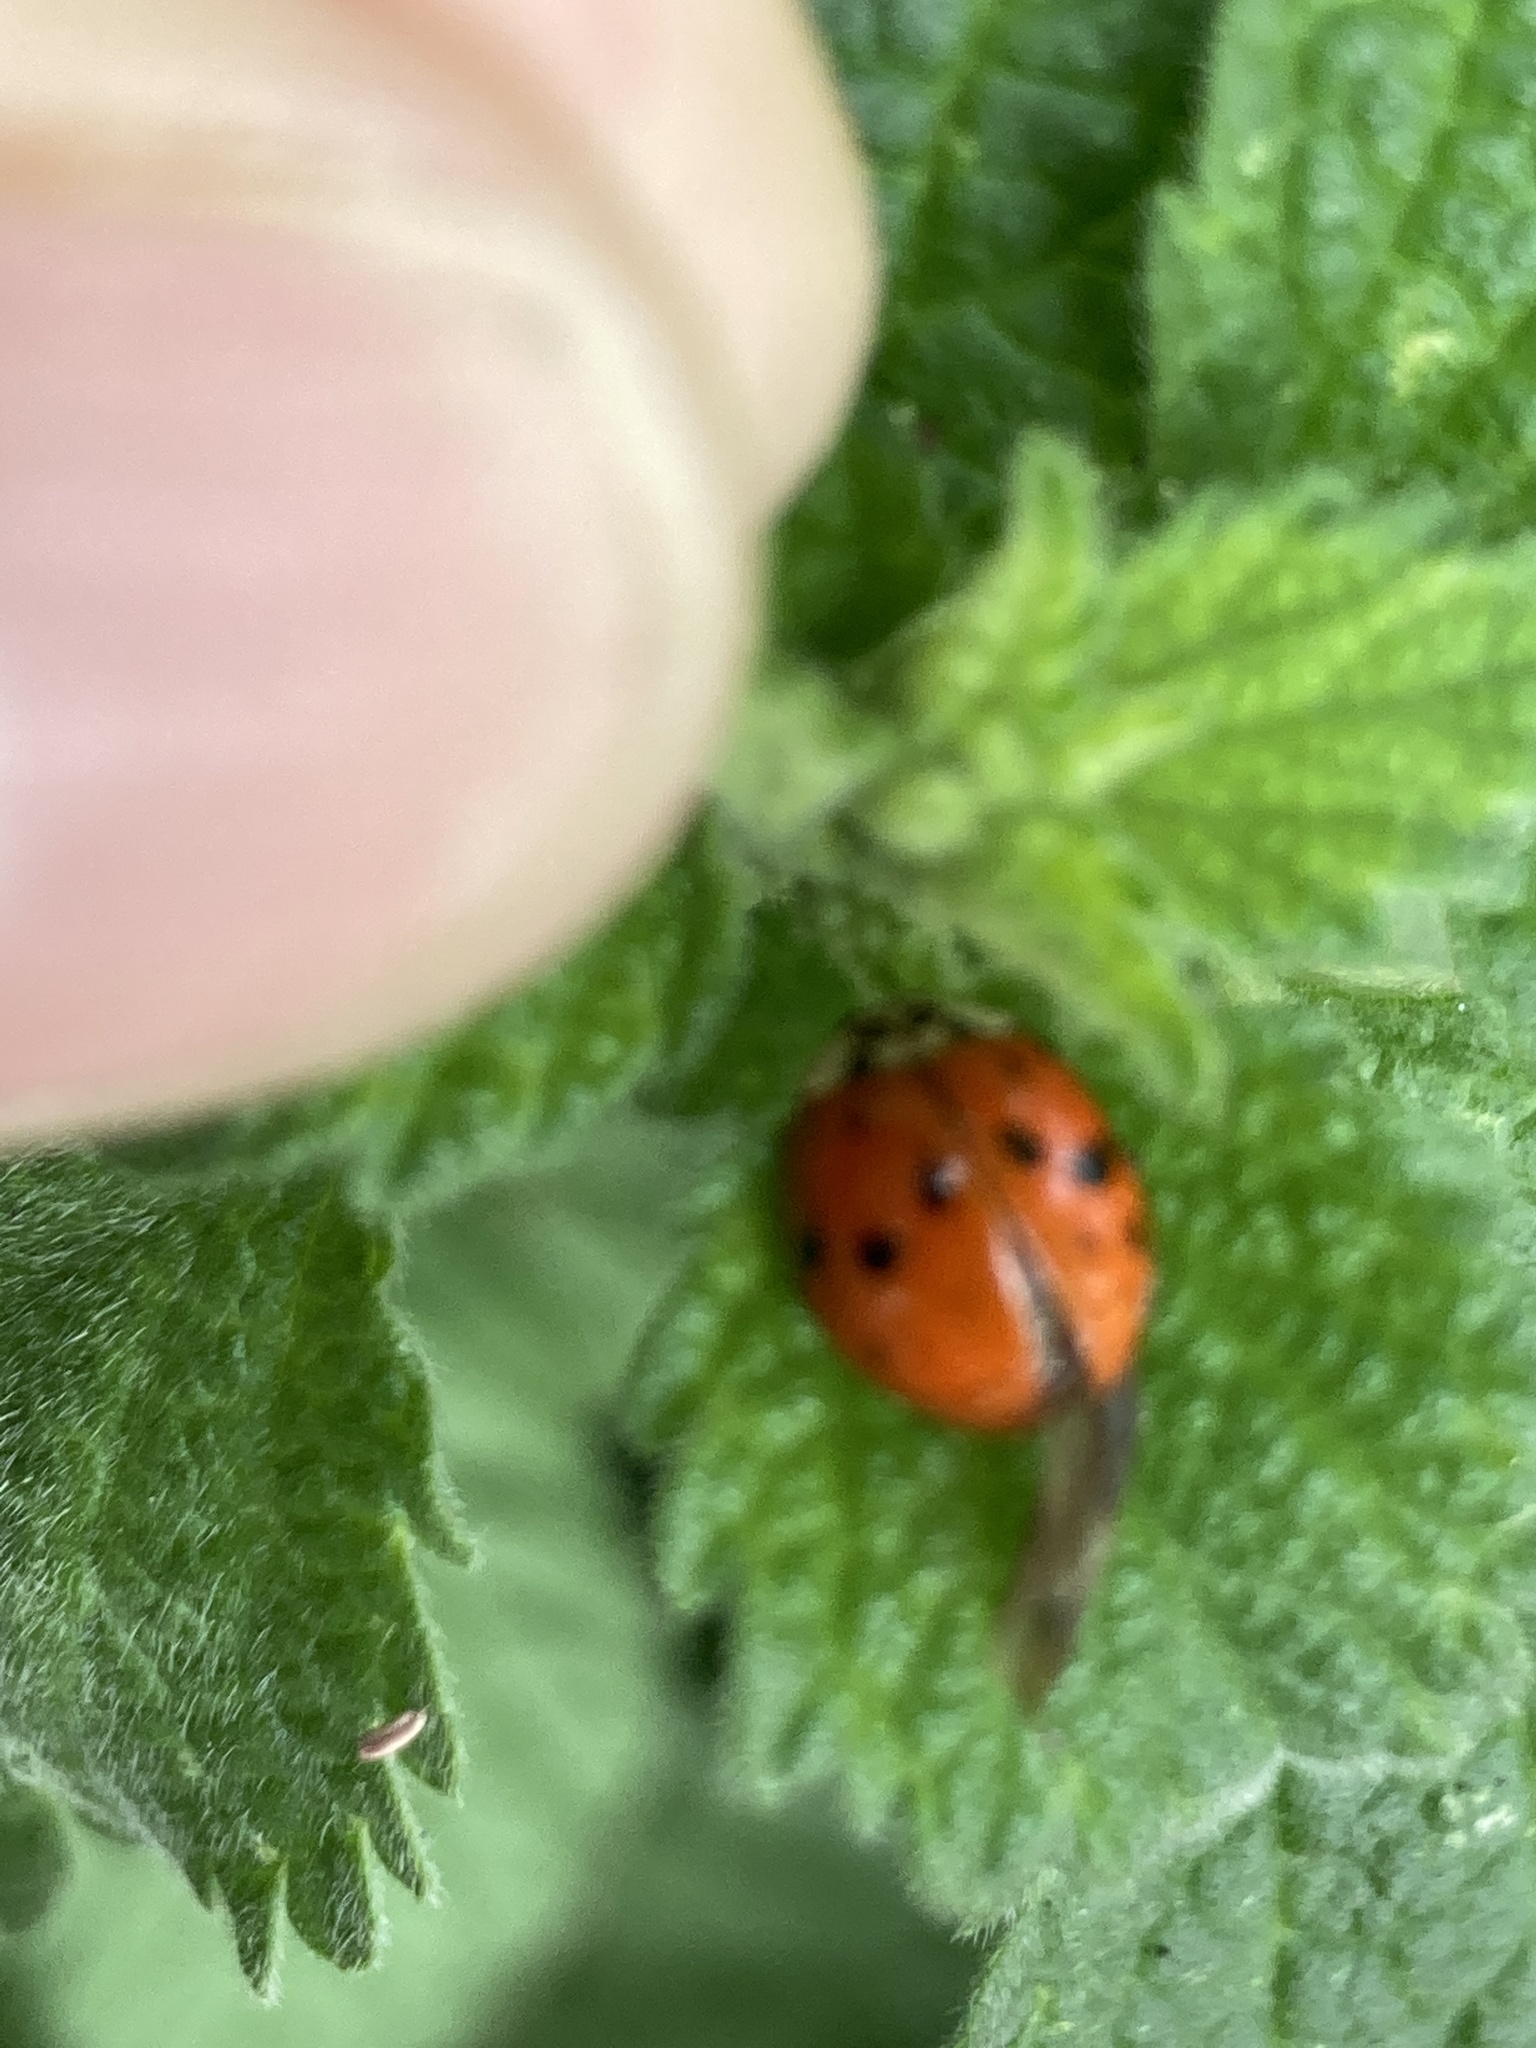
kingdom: Animalia
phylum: Arthropoda
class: Insecta
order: Coleoptera
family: Coccinellidae
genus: Harmonia
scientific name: Harmonia axyridis
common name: Harlequin ladybird
